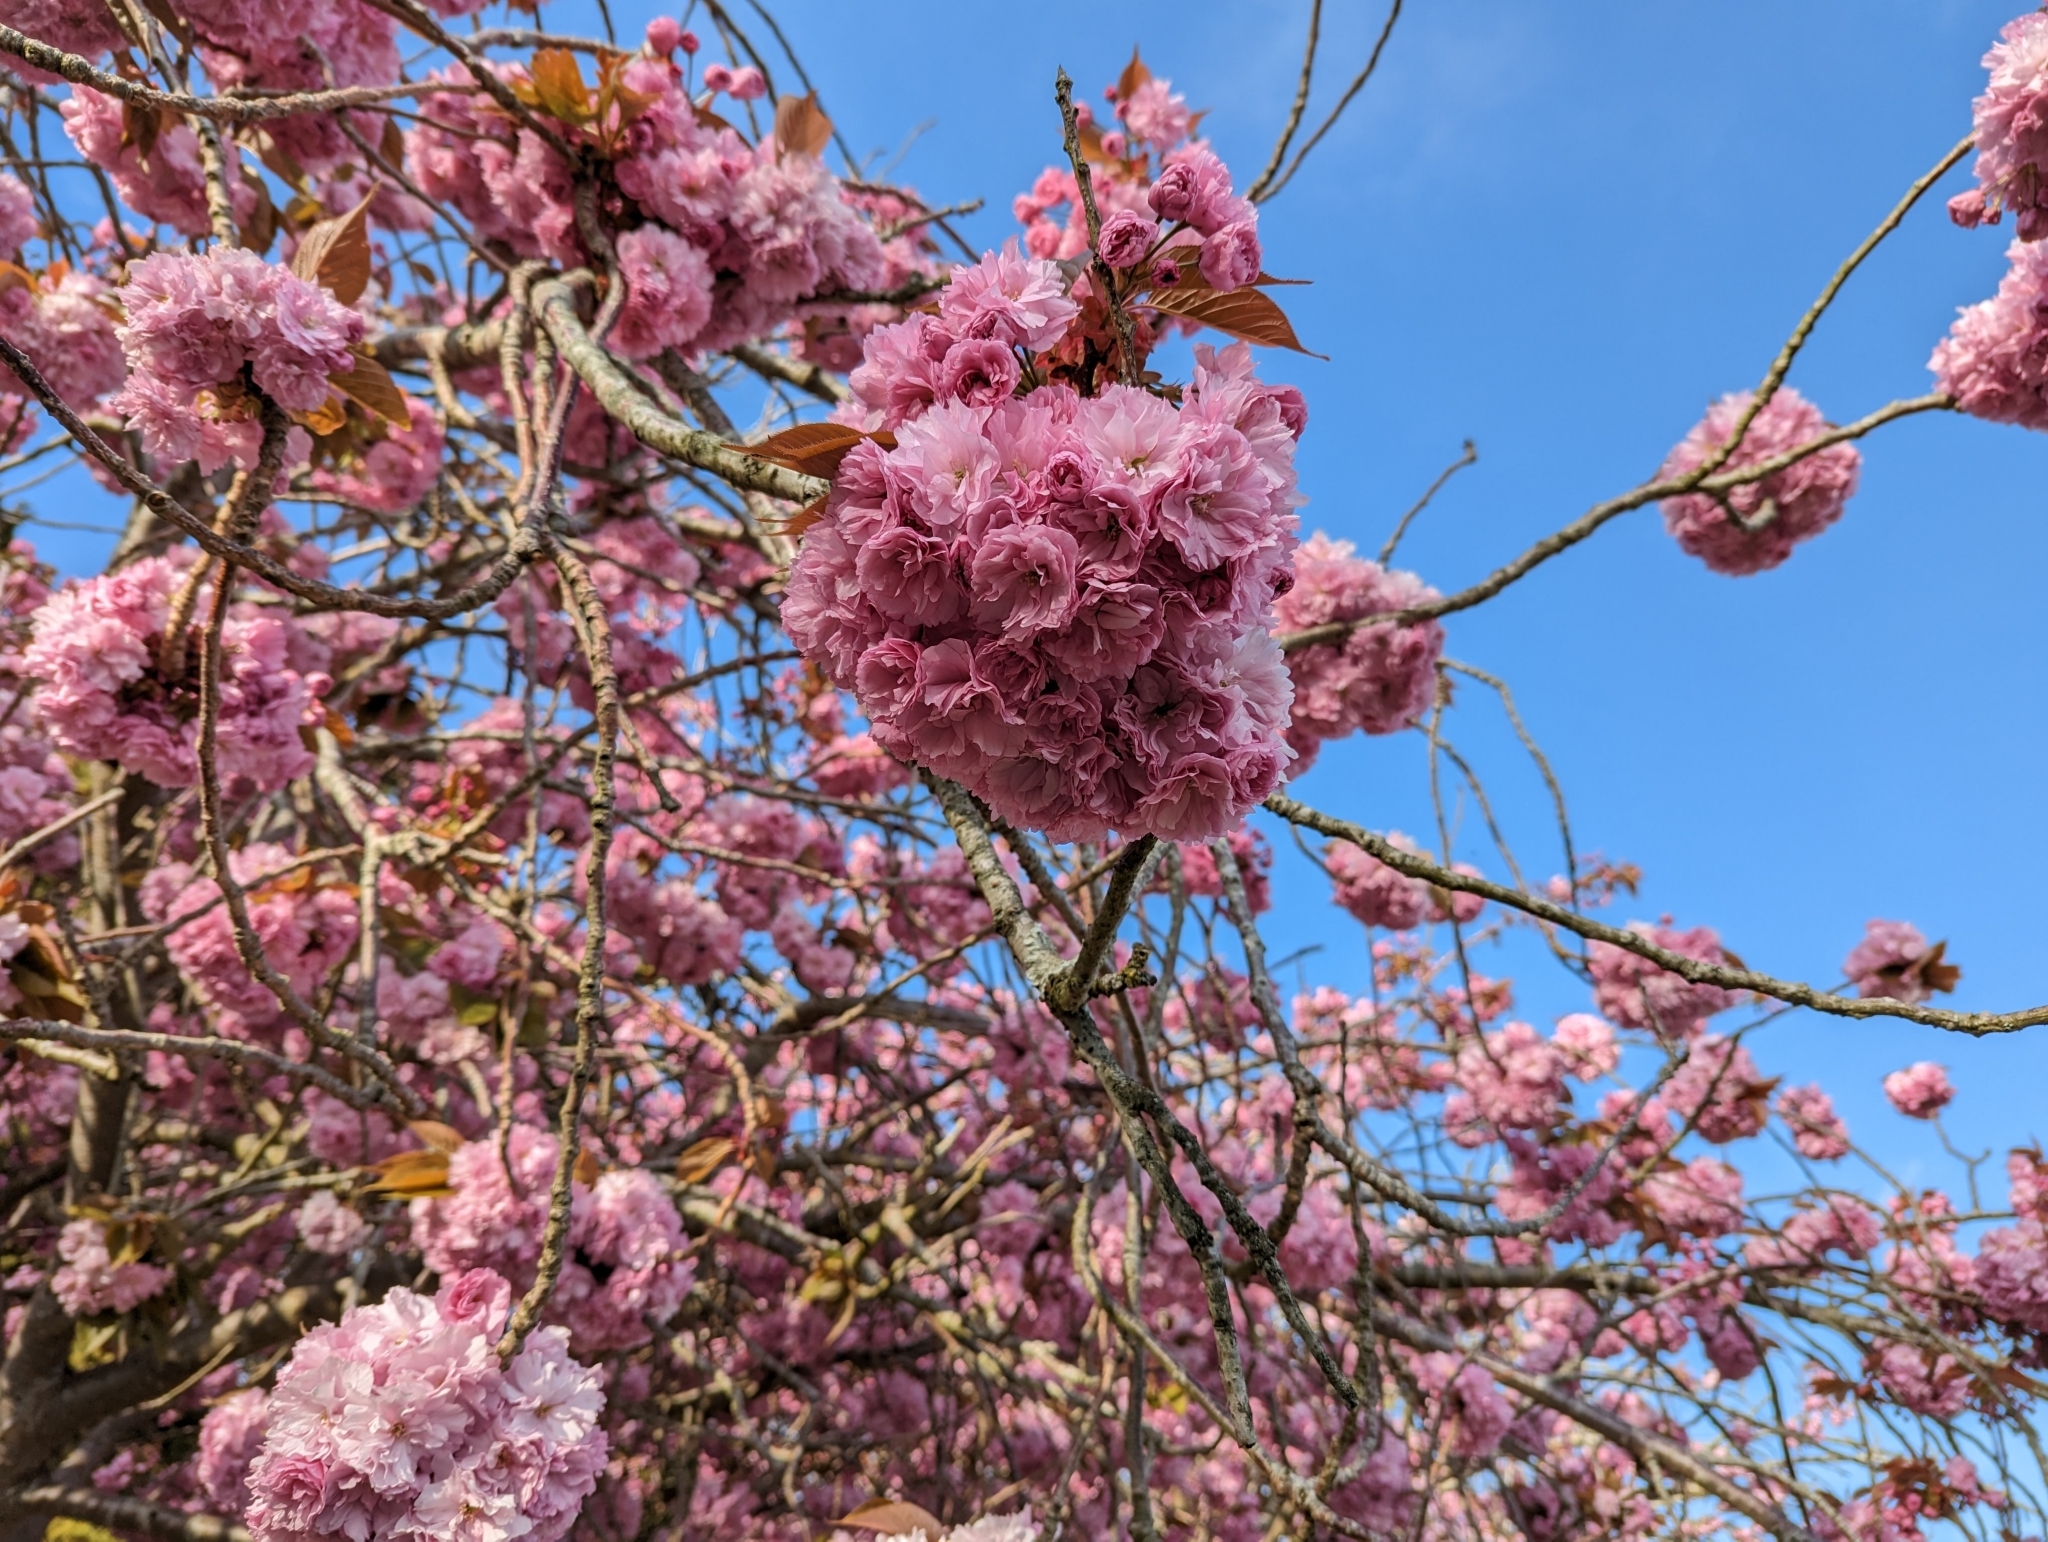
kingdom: Plantae
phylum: Tracheophyta
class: Magnoliopsida
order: Rosales
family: Rosaceae
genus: Prunus
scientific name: Prunus serrulata
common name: Japanese cherry
